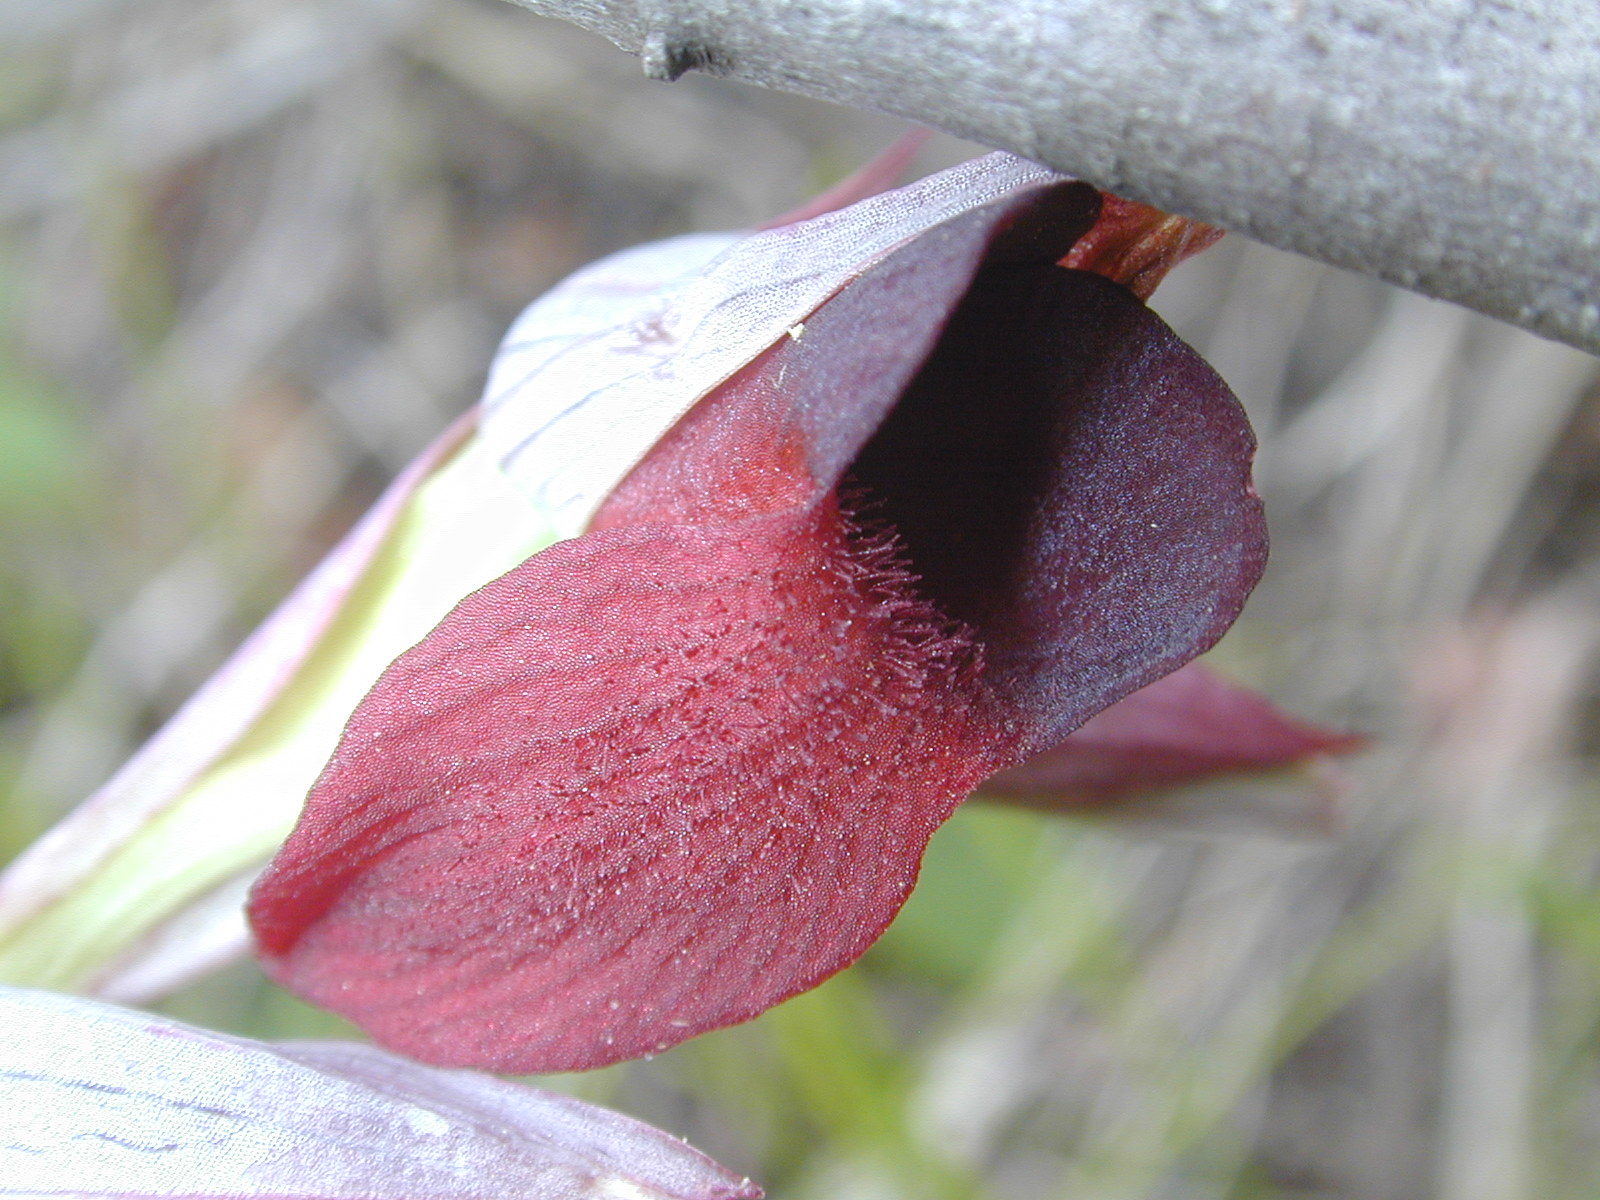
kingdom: Plantae
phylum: Tracheophyta
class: Liliopsida
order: Asparagales
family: Orchidaceae
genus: Serapias
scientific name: Serapias olbia
